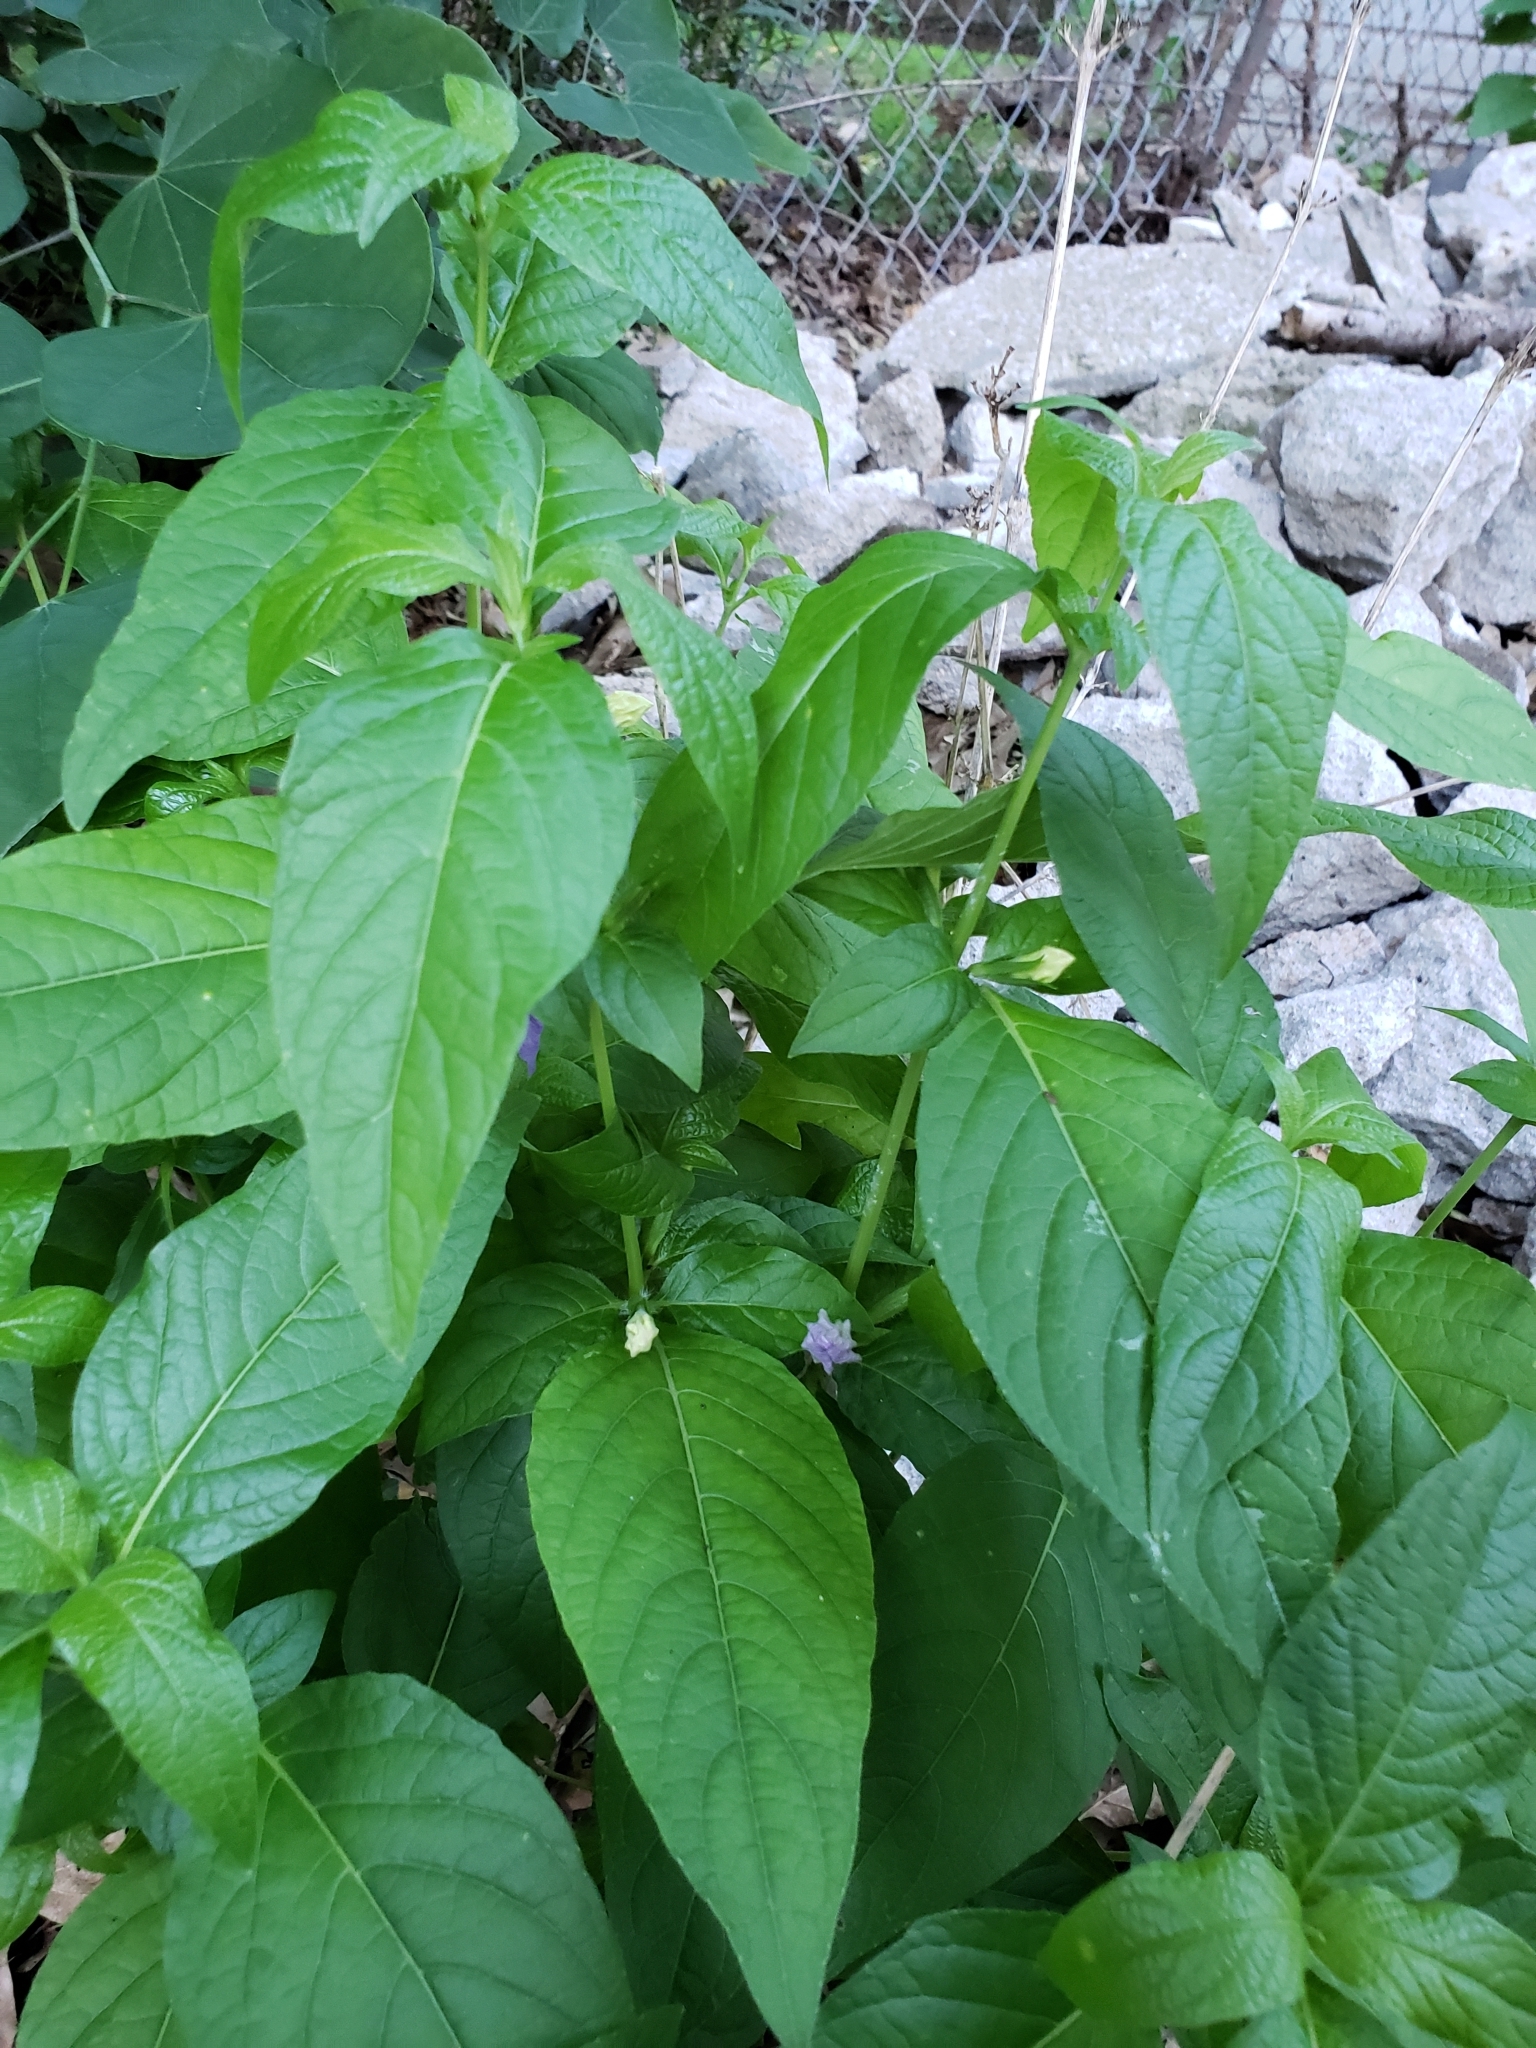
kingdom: Plantae
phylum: Tracheophyta
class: Magnoliopsida
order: Lamiales
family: Acanthaceae
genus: Ruellia
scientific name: Ruellia strepens
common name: Limestone wild petunia
